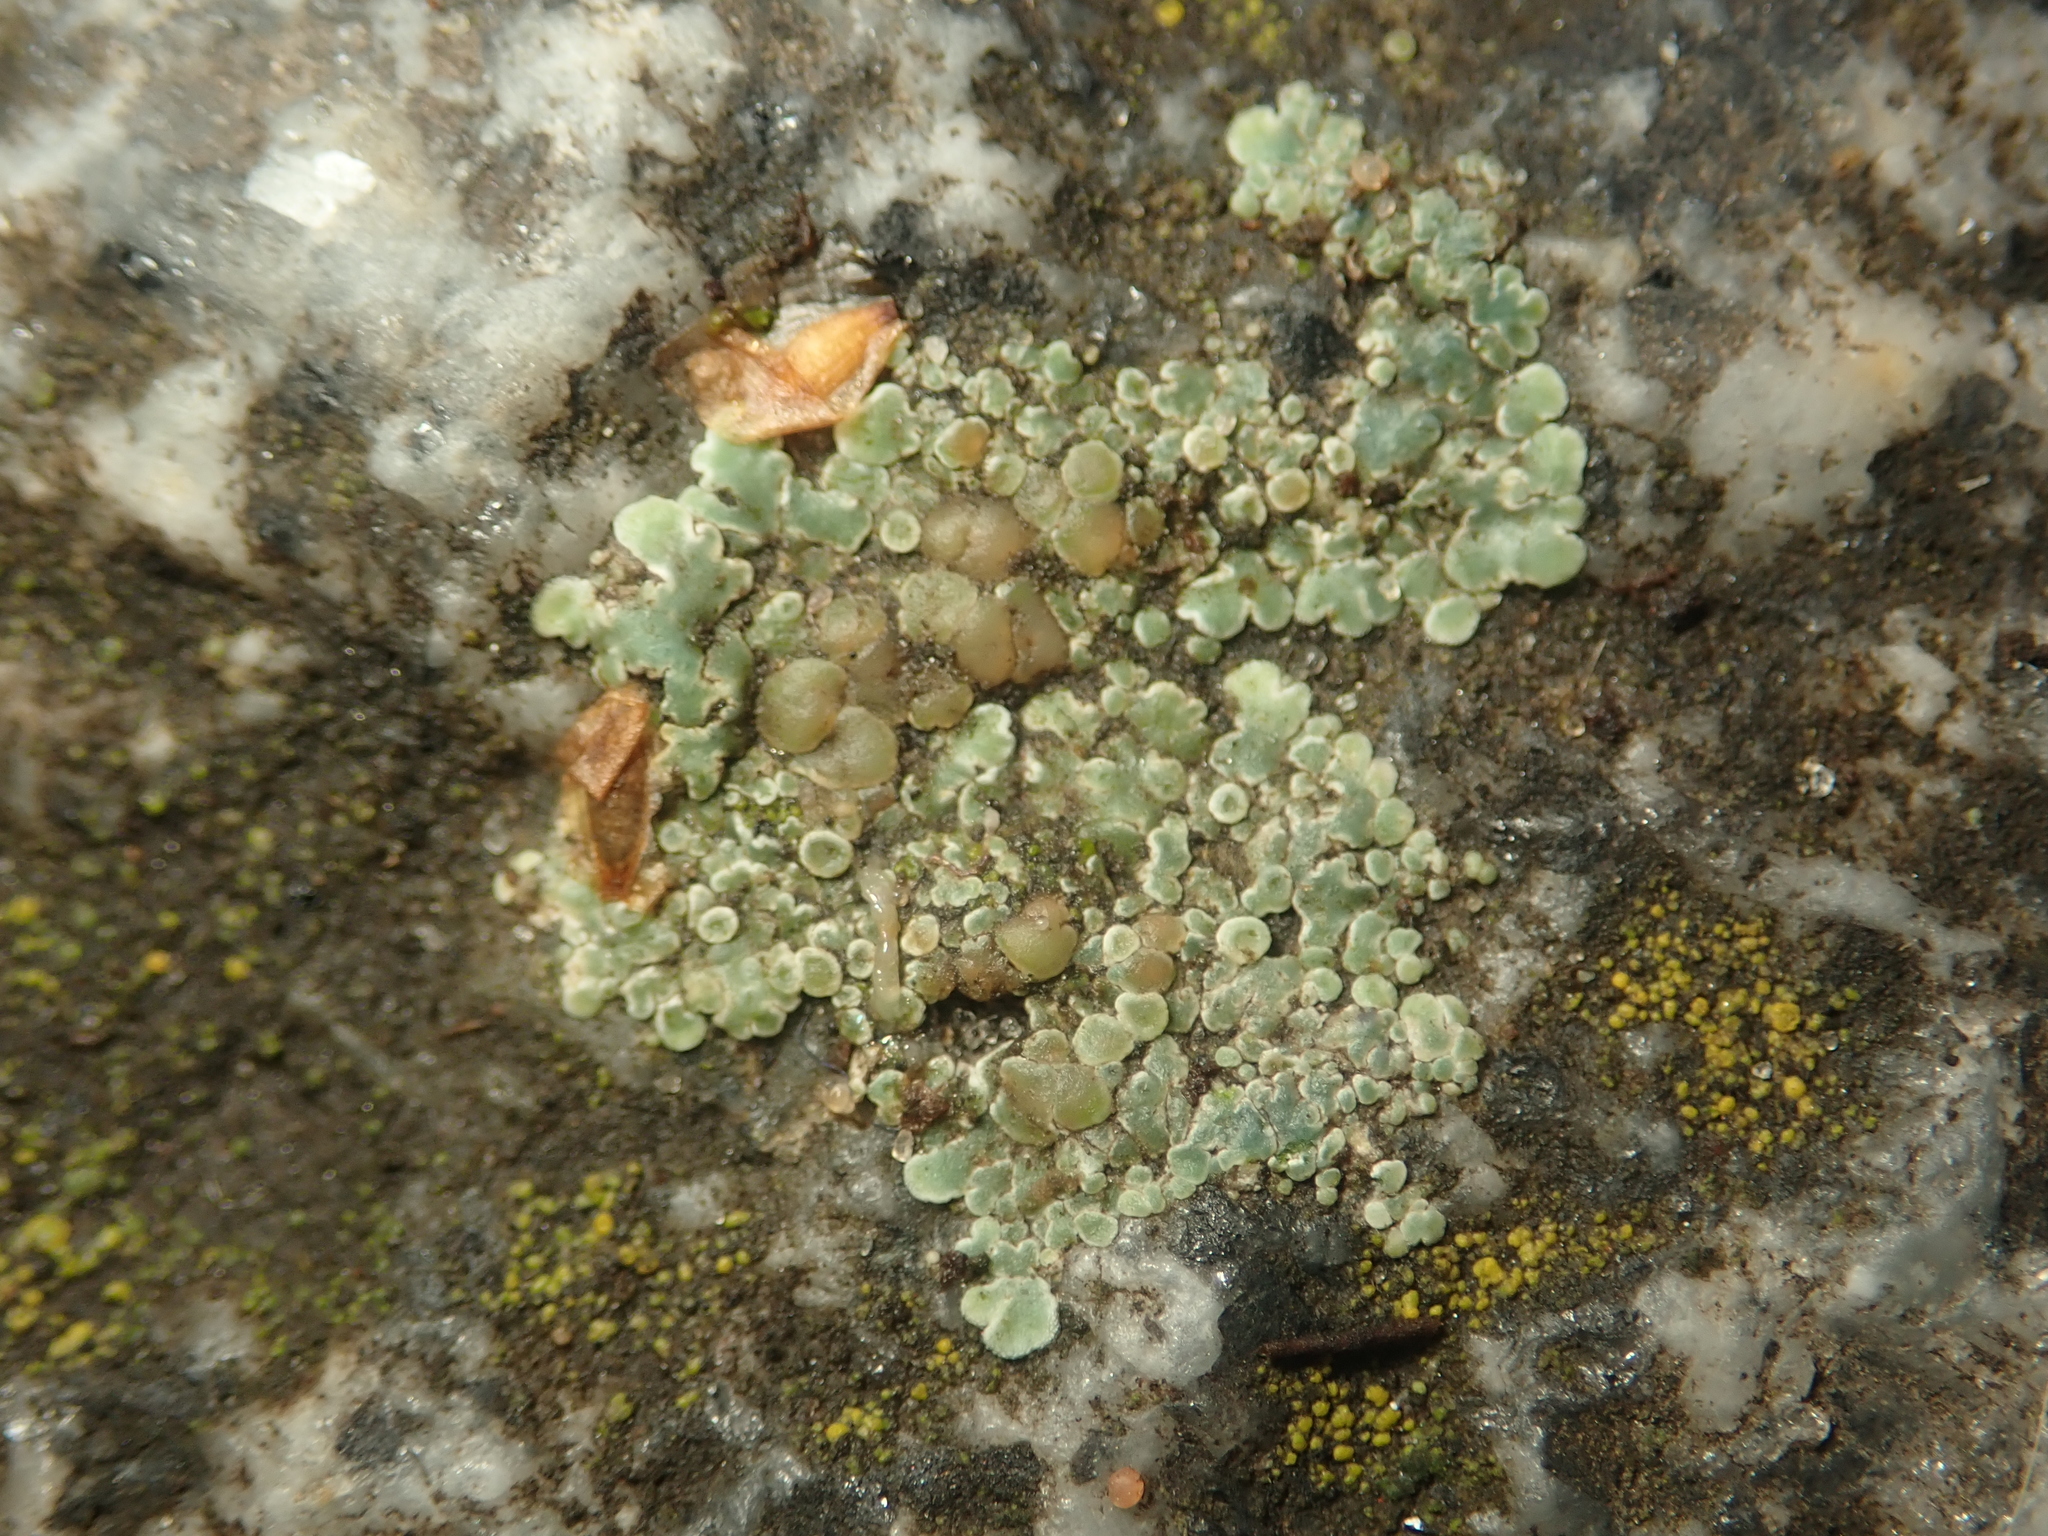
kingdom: Fungi
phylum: Ascomycota
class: Lecanoromycetes
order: Lecanorales
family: Lecanoraceae
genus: Protoparmeliopsis
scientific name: Protoparmeliopsis muralis
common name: Stonewall rim lichen
